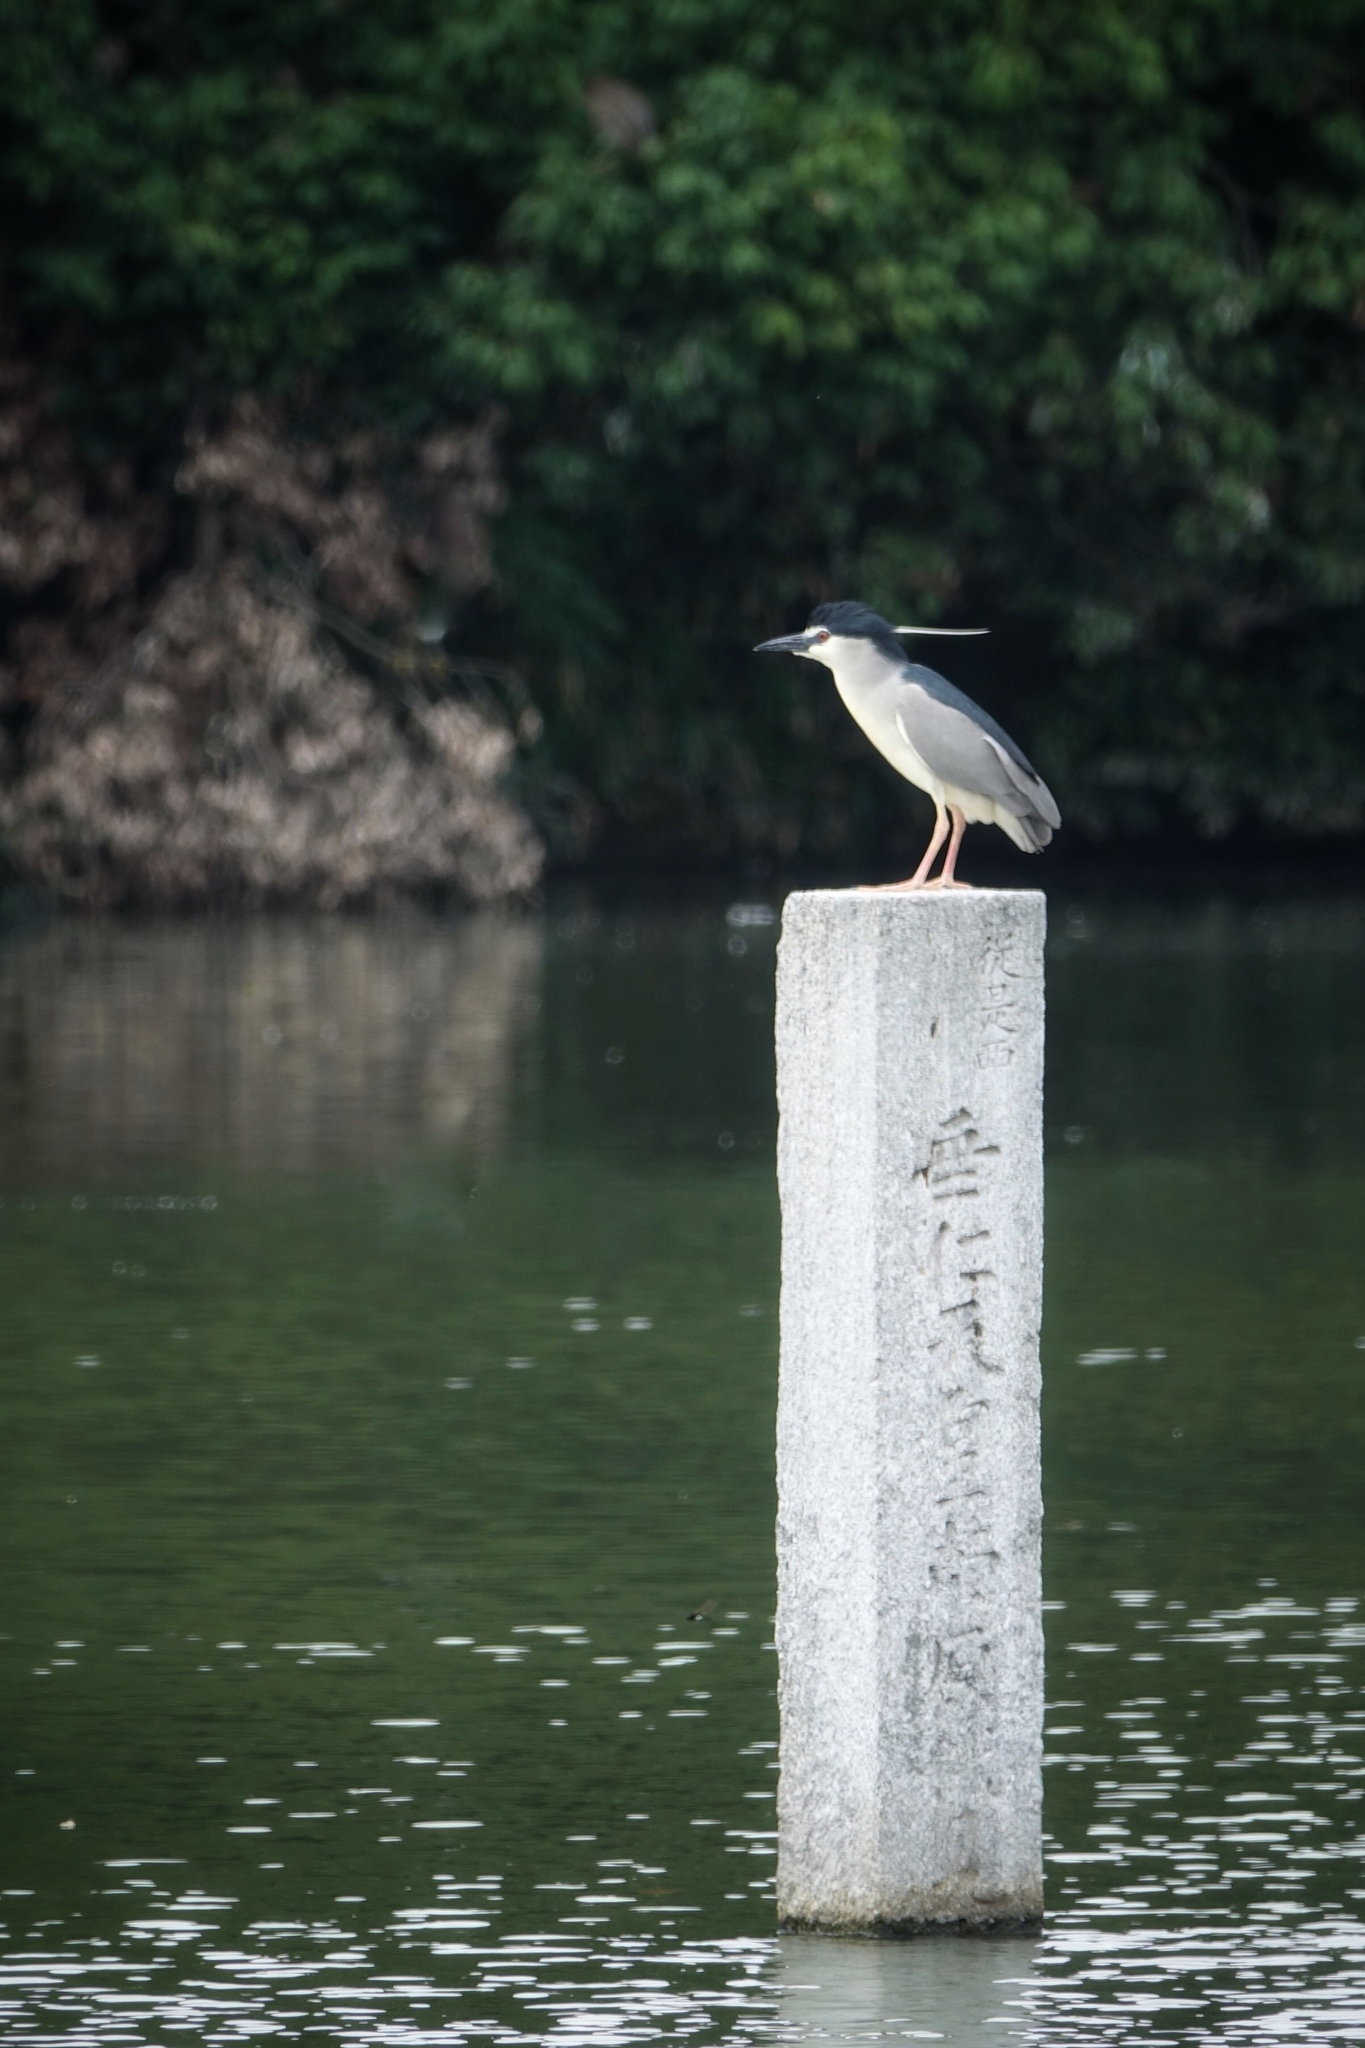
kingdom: Animalia
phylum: Chordata
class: Aves
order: Pelecaniformes
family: Ardeidae
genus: Nycticorax
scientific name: Nycticorax nycticorax
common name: Black-crowned night heron
